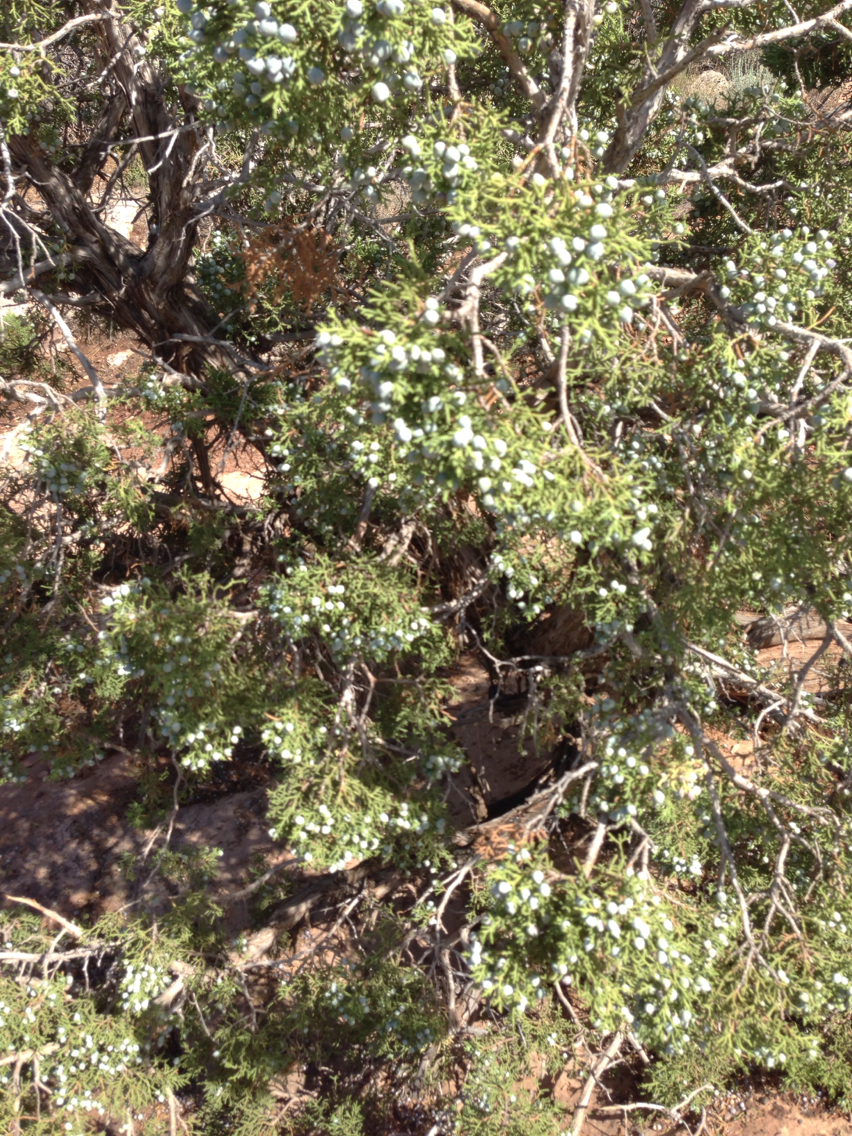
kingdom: Plantae
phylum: Tracheophyta
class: Pinopsida
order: Pinales
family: Cupressaceae
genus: Juniperus
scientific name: Juniperus osteosperma
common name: Utah juniper
